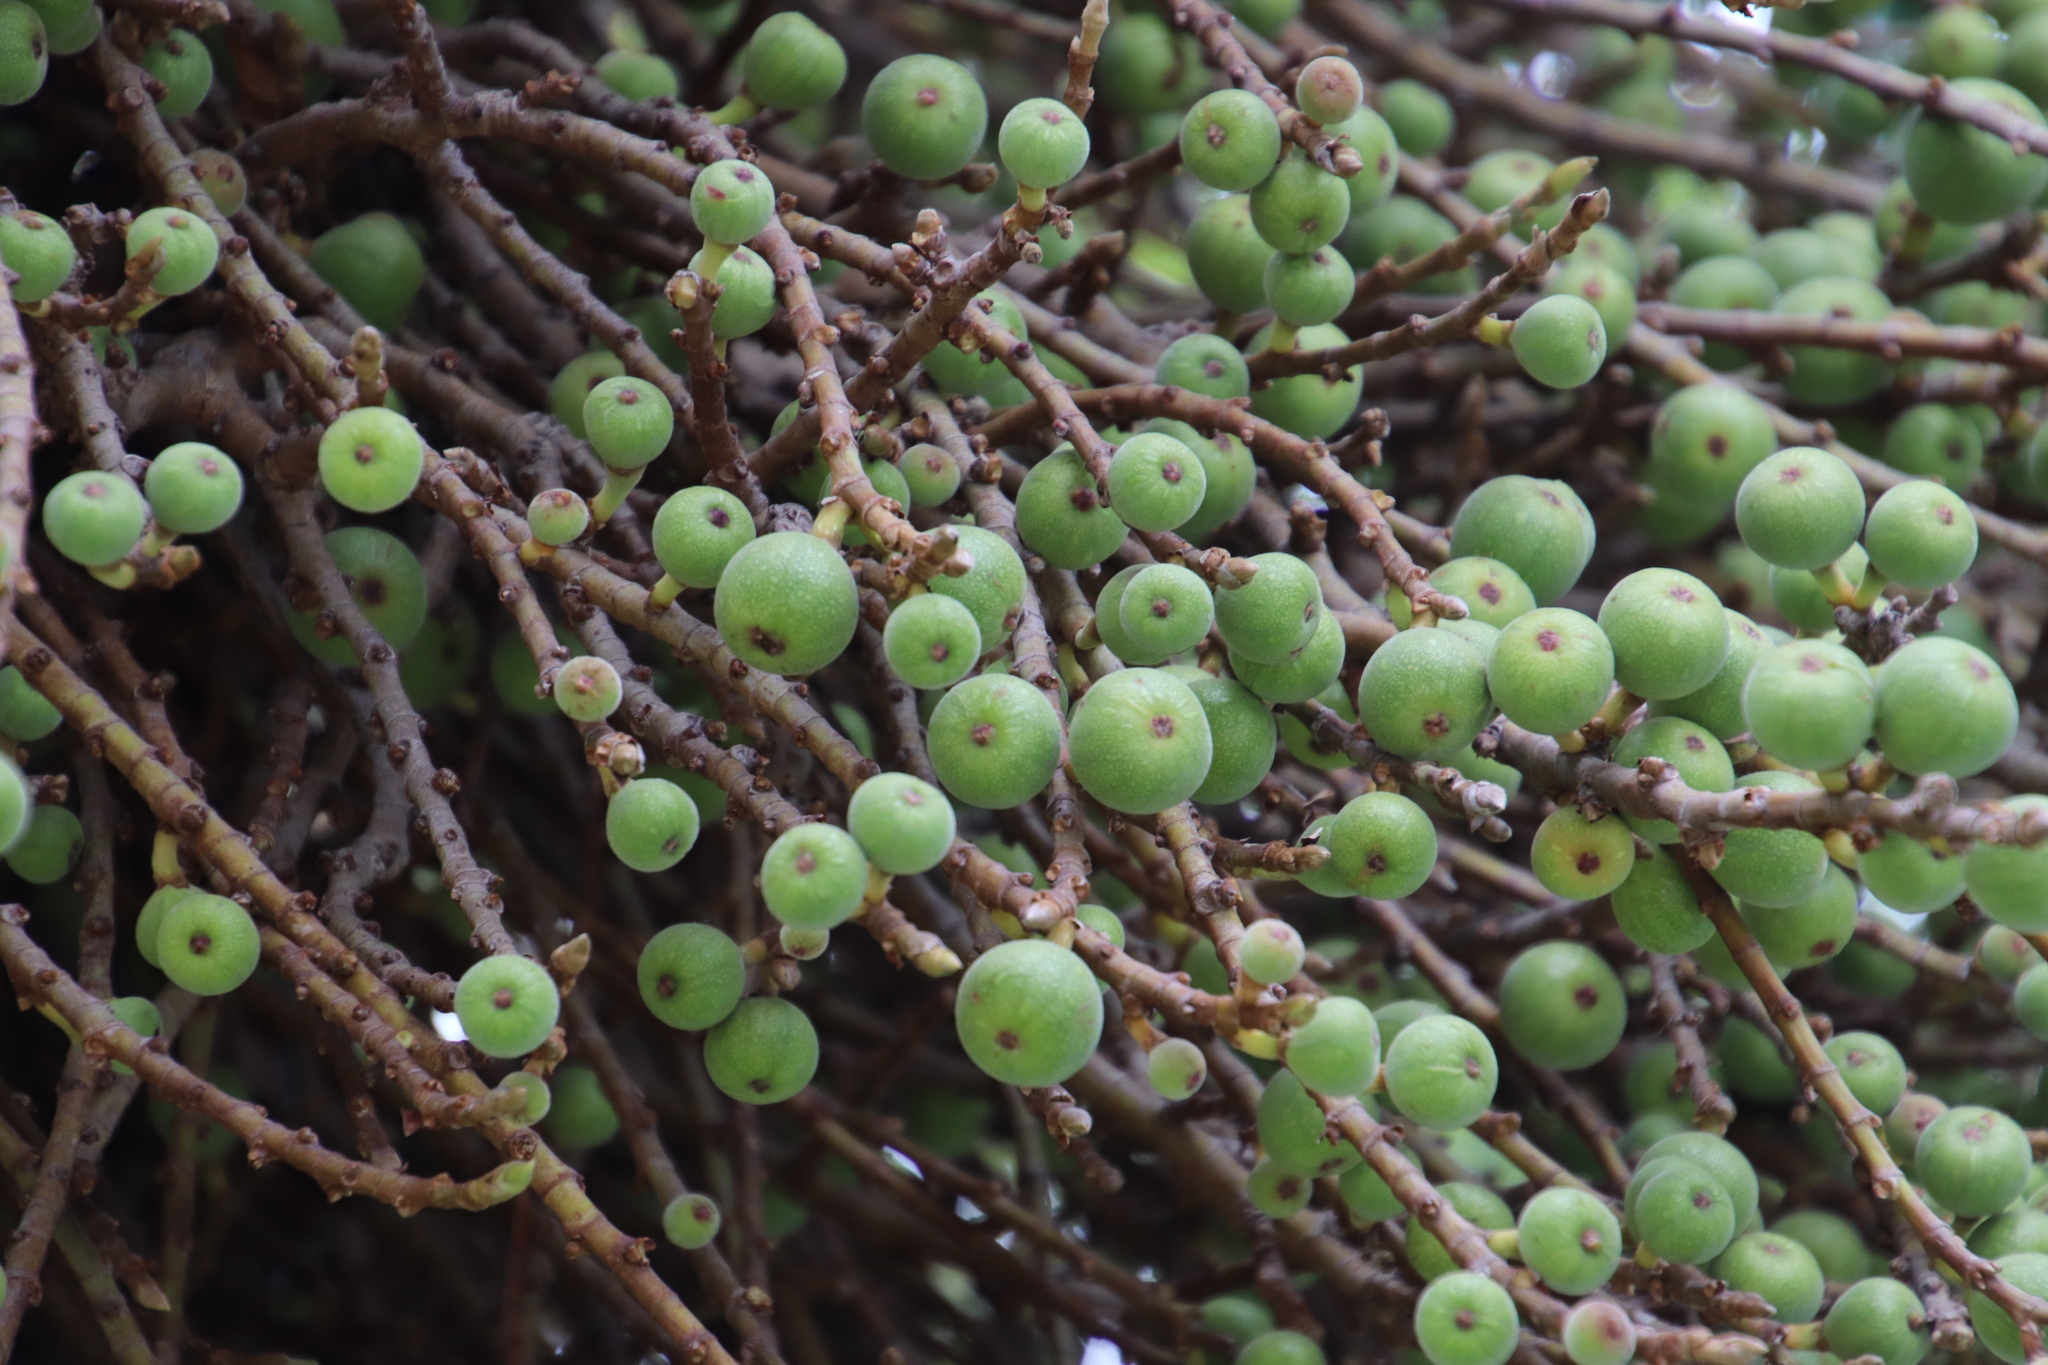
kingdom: Plantae
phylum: Tracheophyta
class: Magnoliopsida
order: Rosales
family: Moraceae
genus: Ficus
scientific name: Ficus sur
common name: Cape fig
